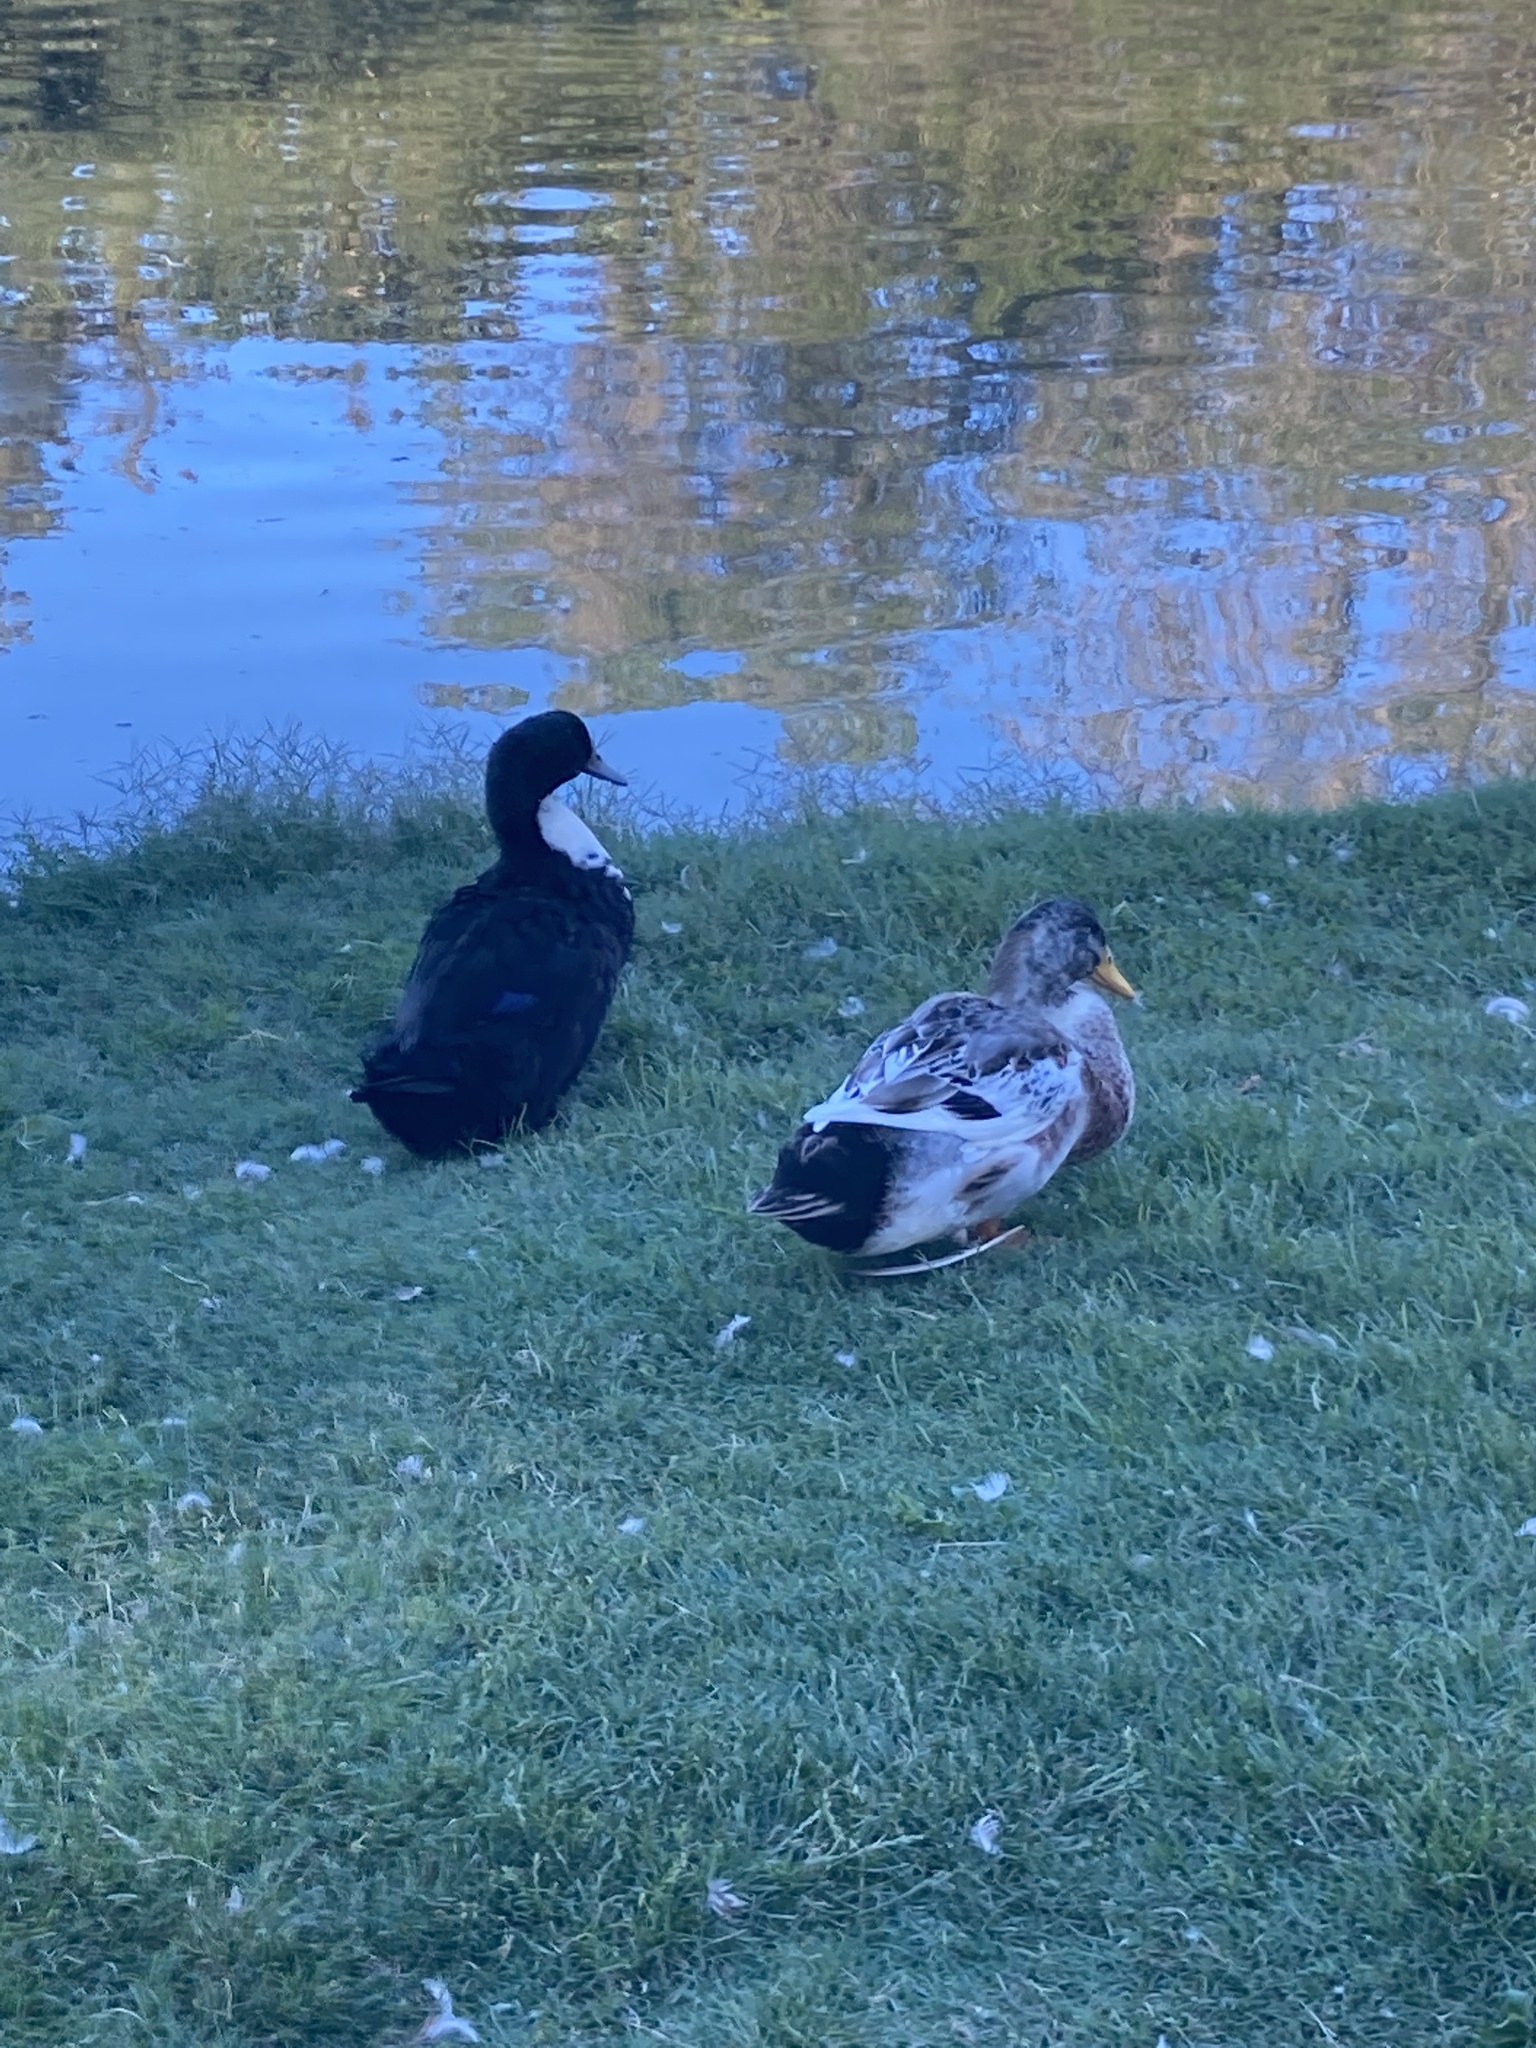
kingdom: Animalia
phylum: Chordata
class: Aves
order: Anseriformes
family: Anatidae
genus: Anas
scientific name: Anas platyrhynchos
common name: Mallard
